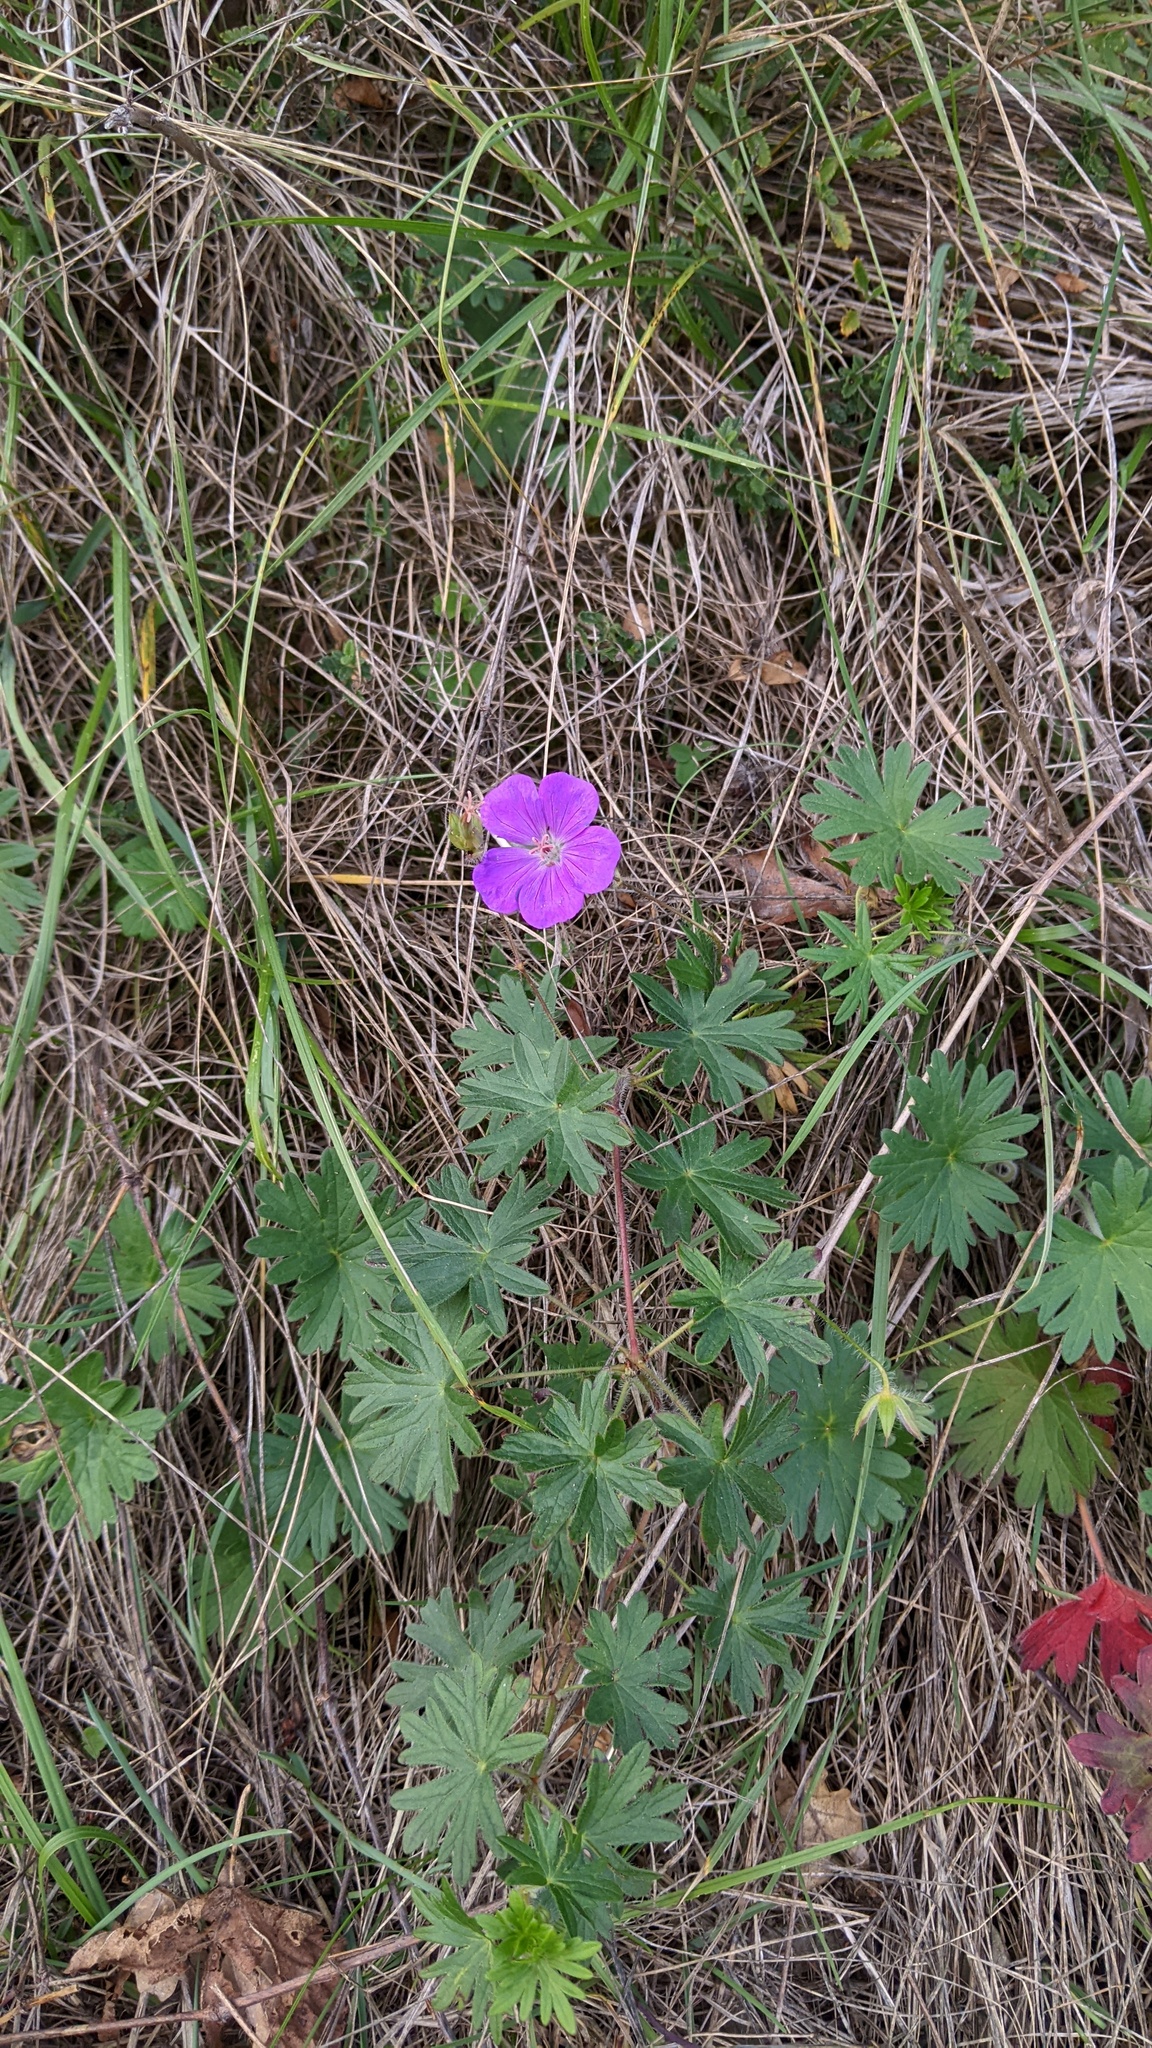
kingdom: Plantae
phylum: Tracheophyta
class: Magnoliopsida
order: Geraniales
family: Geraniaceae
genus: Geranium
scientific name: Geranium sanguineum
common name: Bloody crane's-bill
